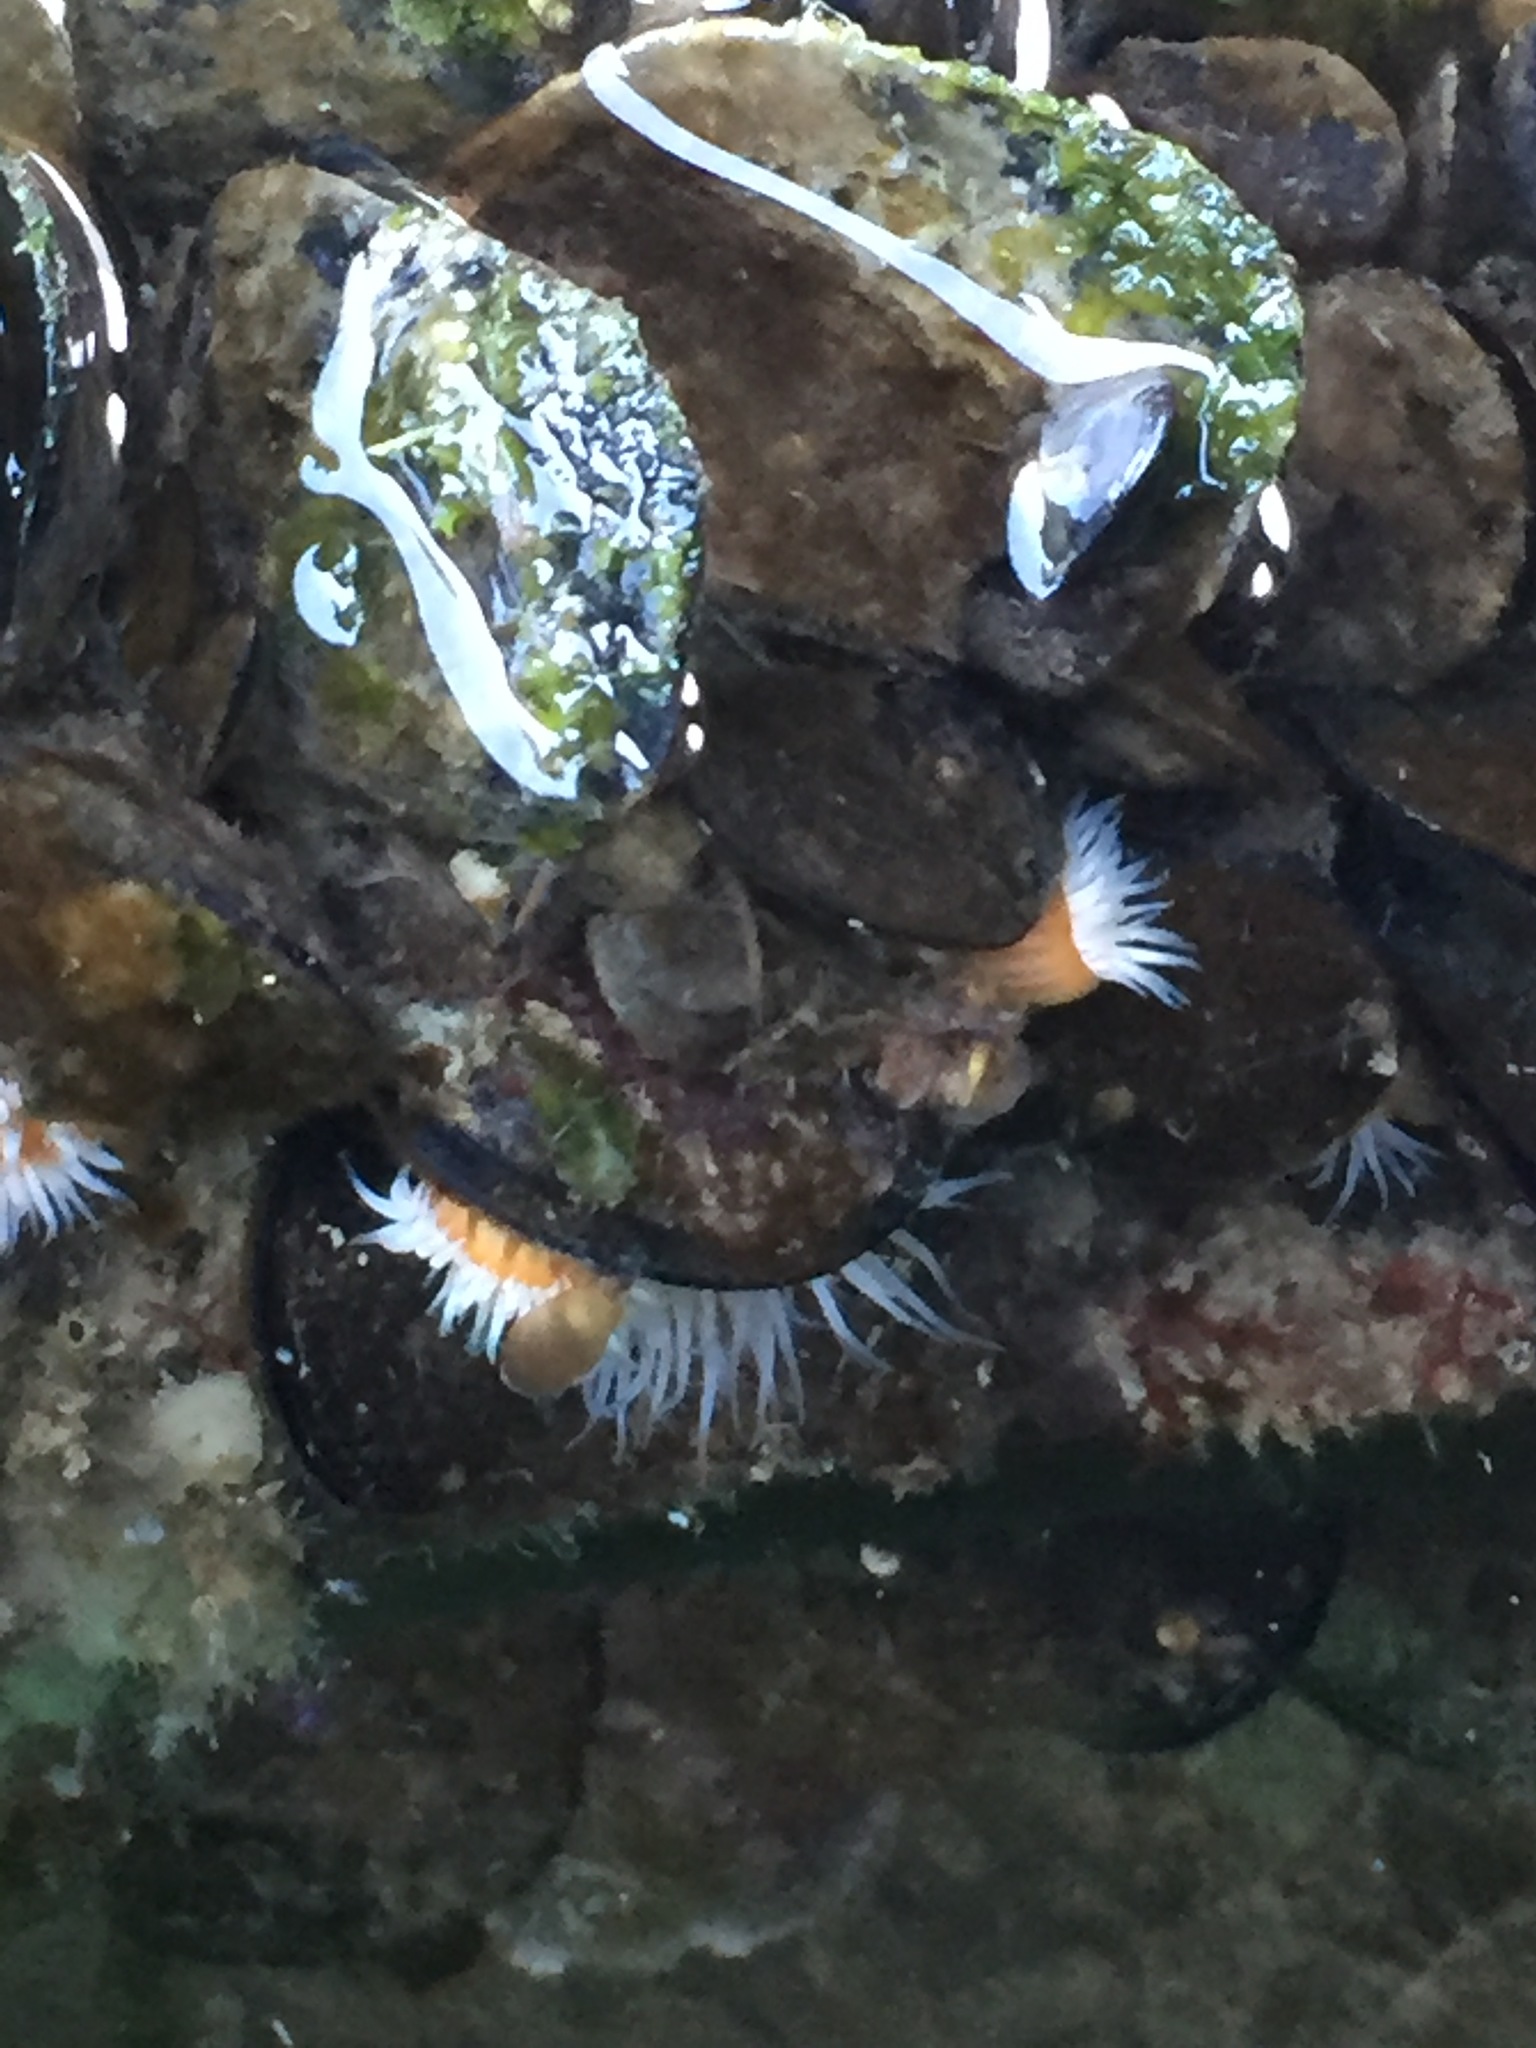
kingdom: Animalia
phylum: Cnidaria
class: Anthozoa
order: Actiniaria
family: Sagartiidae
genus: Anthothoe
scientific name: Anthothoe albocincta
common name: Orange striped anemone
